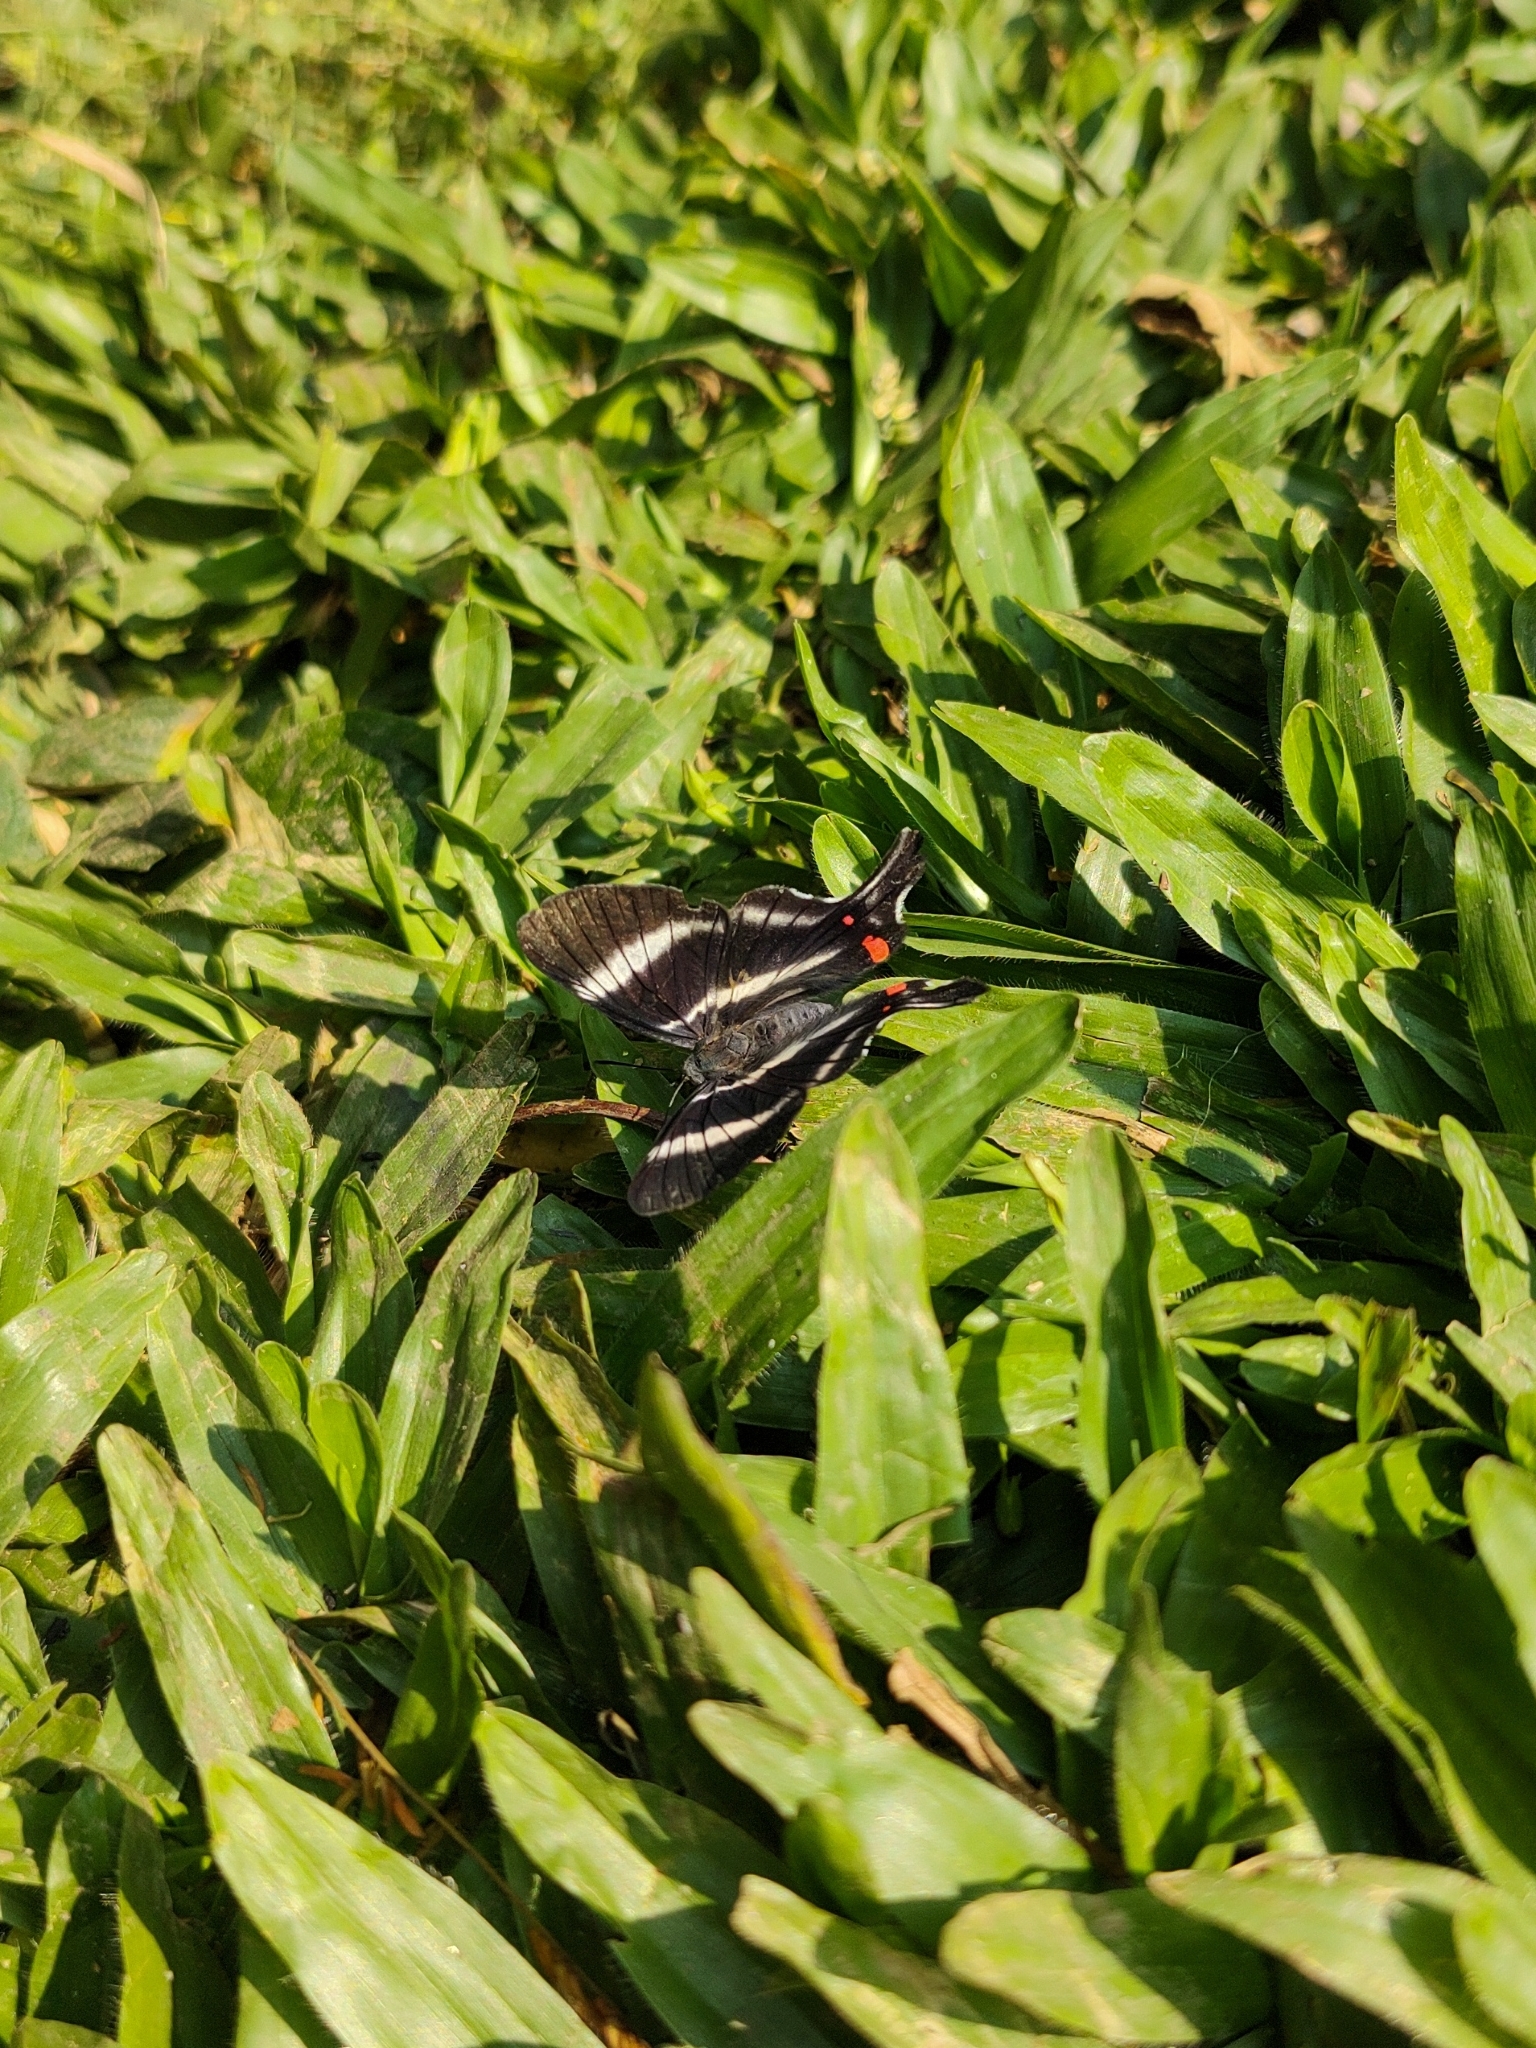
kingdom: Animalia
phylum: Arthropoda
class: Insecta
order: Lepidoptera
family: Riodinidae
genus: Rhetus
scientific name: Rhetus periander
